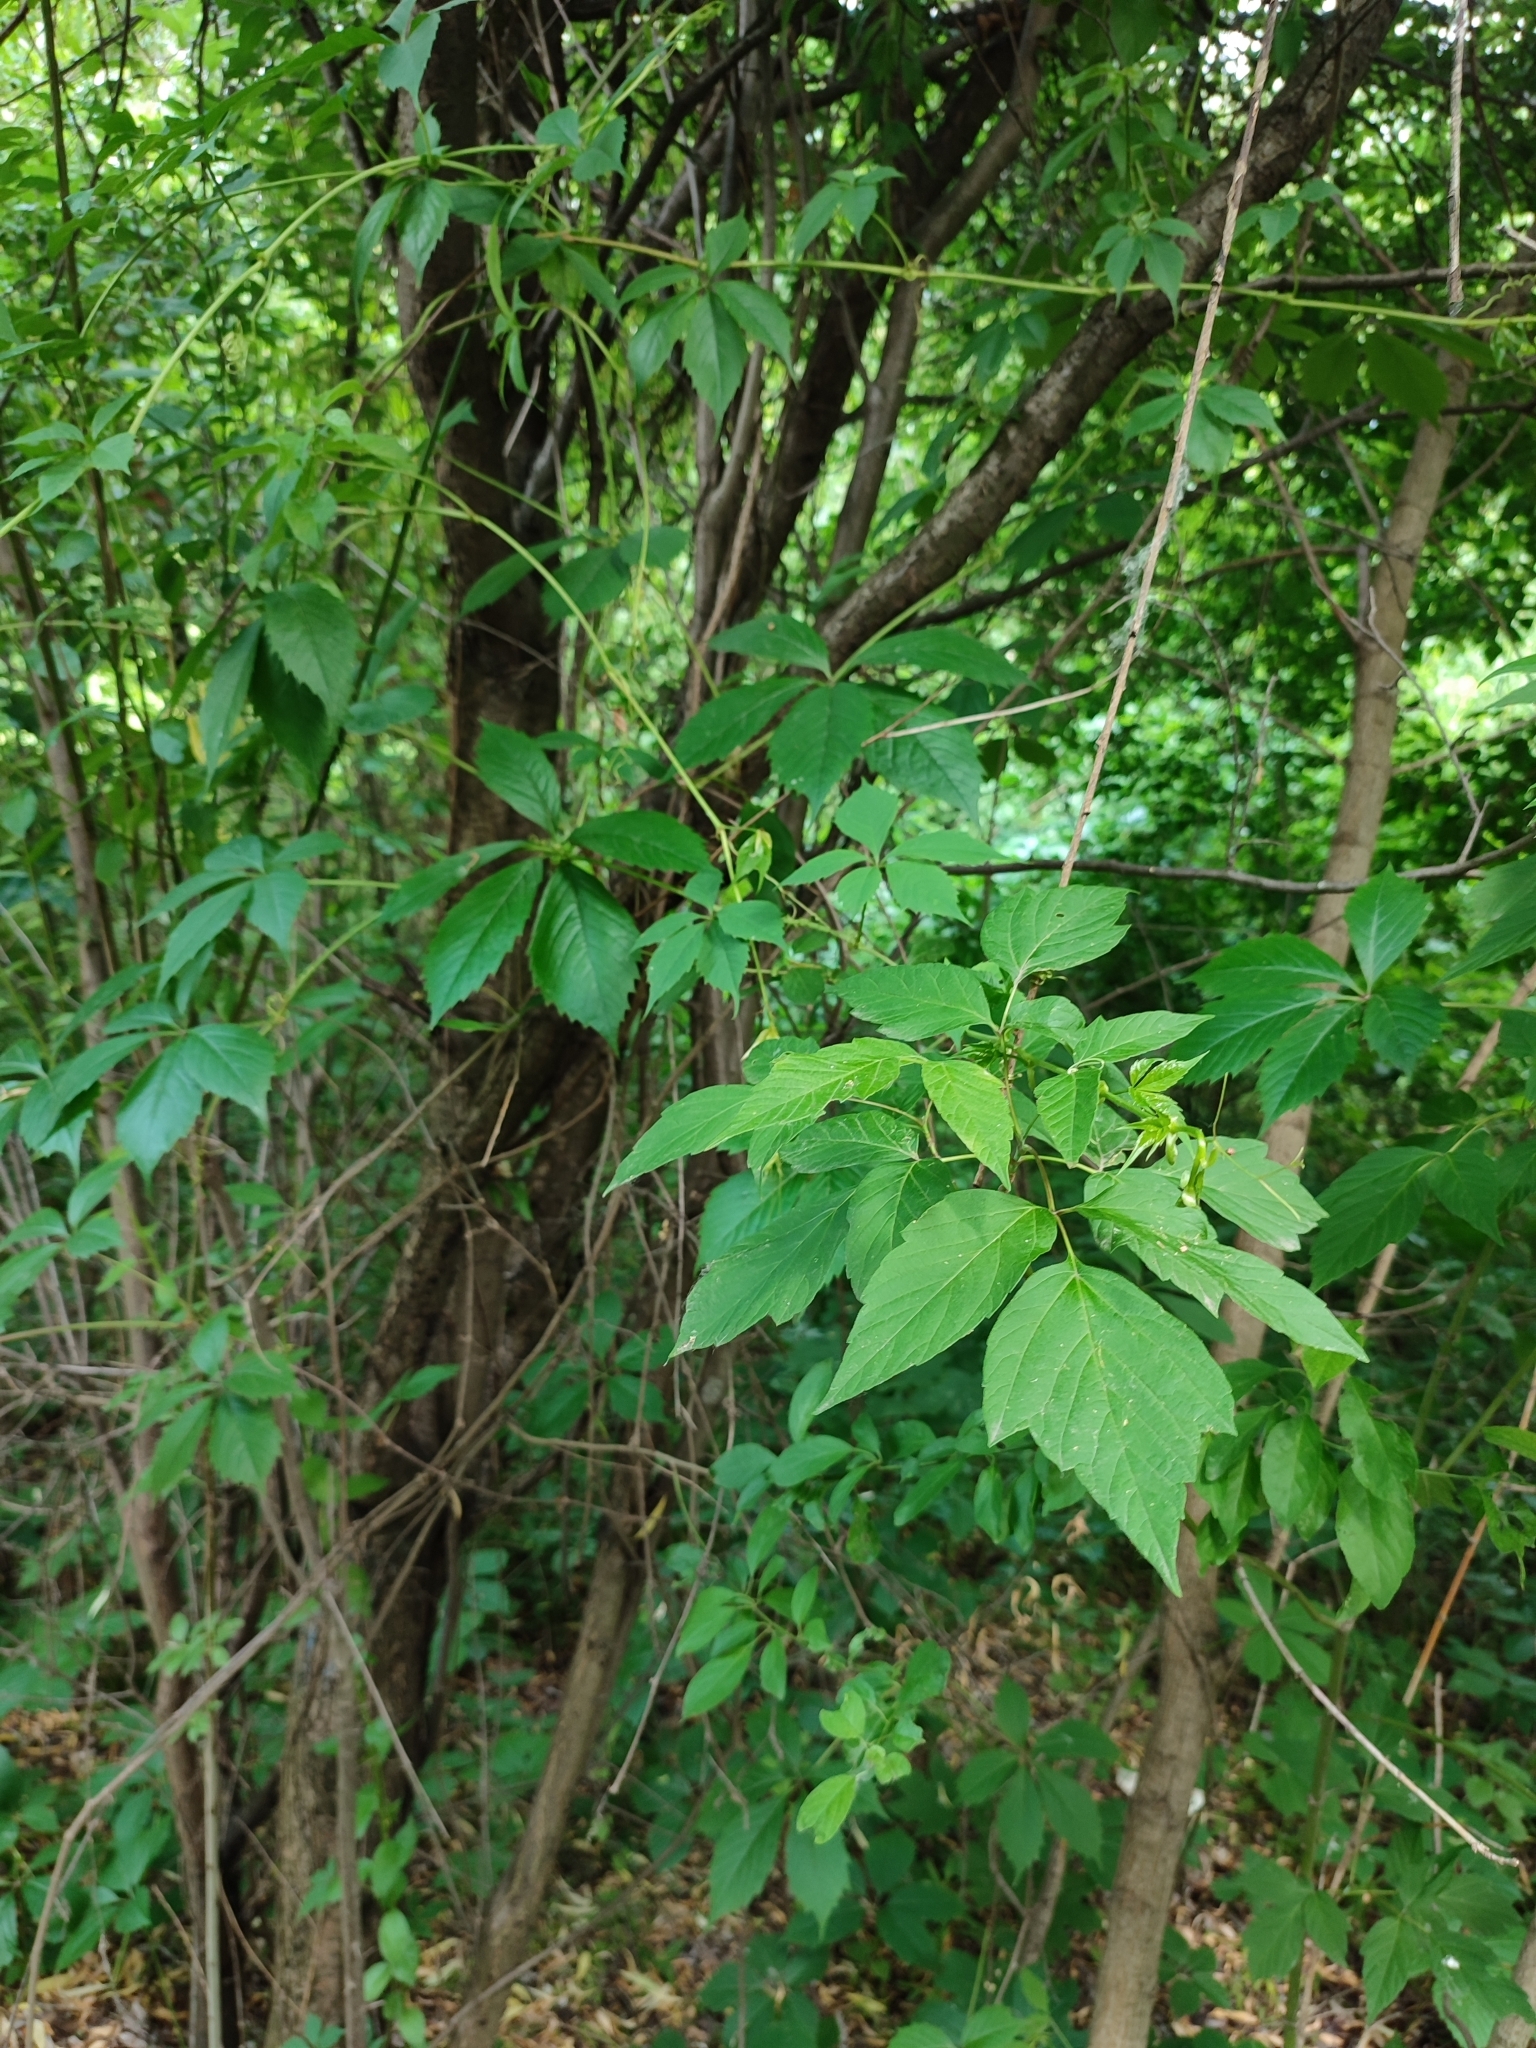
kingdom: Plantae
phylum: Tracheophyta
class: Magnoliopsida
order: Sapindales
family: Sapindaceae
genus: Acer
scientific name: Acer negundo
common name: Ashleaf maple
